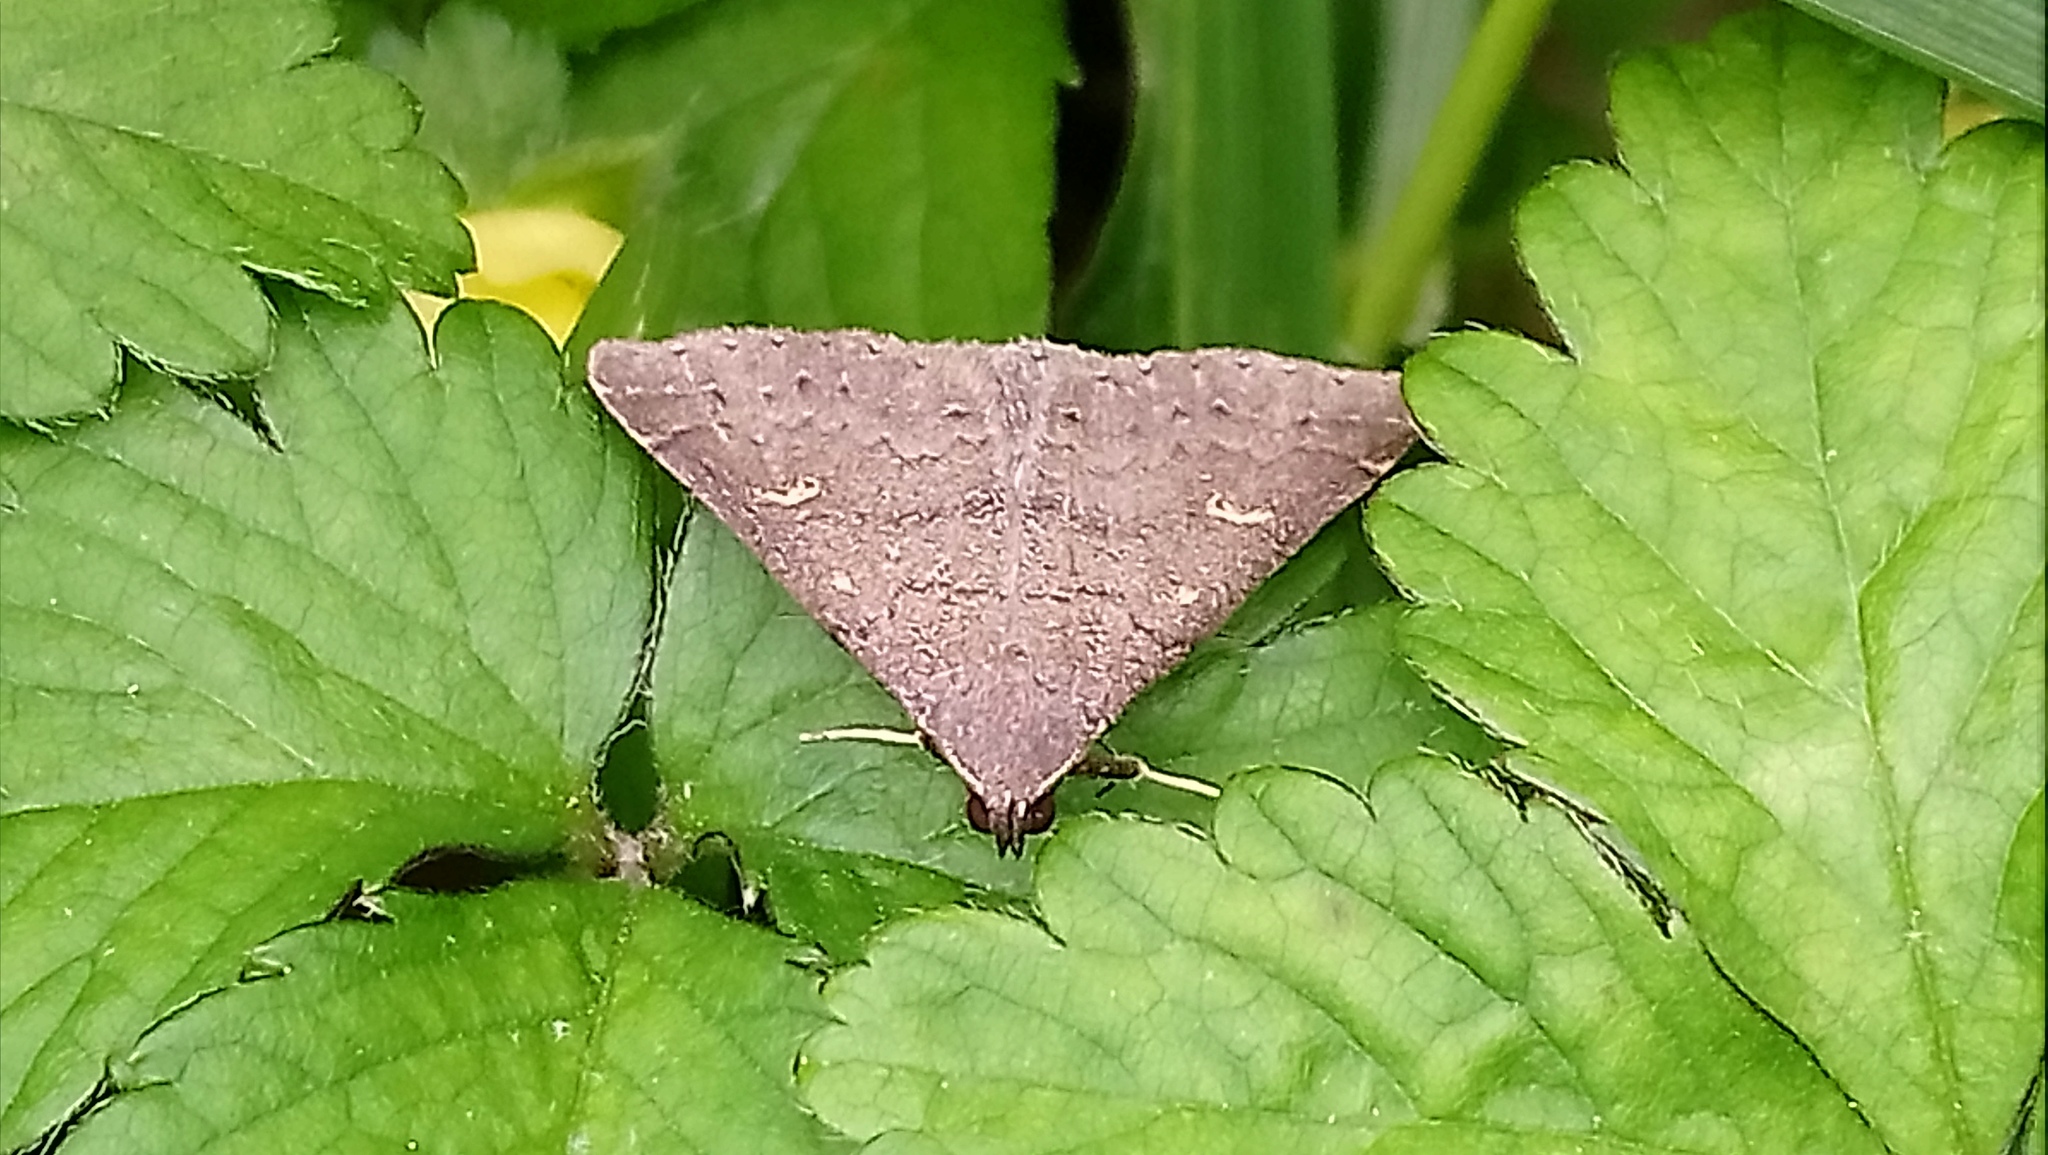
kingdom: Animalia
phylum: Arthropoda
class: Insecta
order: Lepidoptera
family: Erebidae
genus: Renia
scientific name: Renia adspergillus
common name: Speckled renia moth
